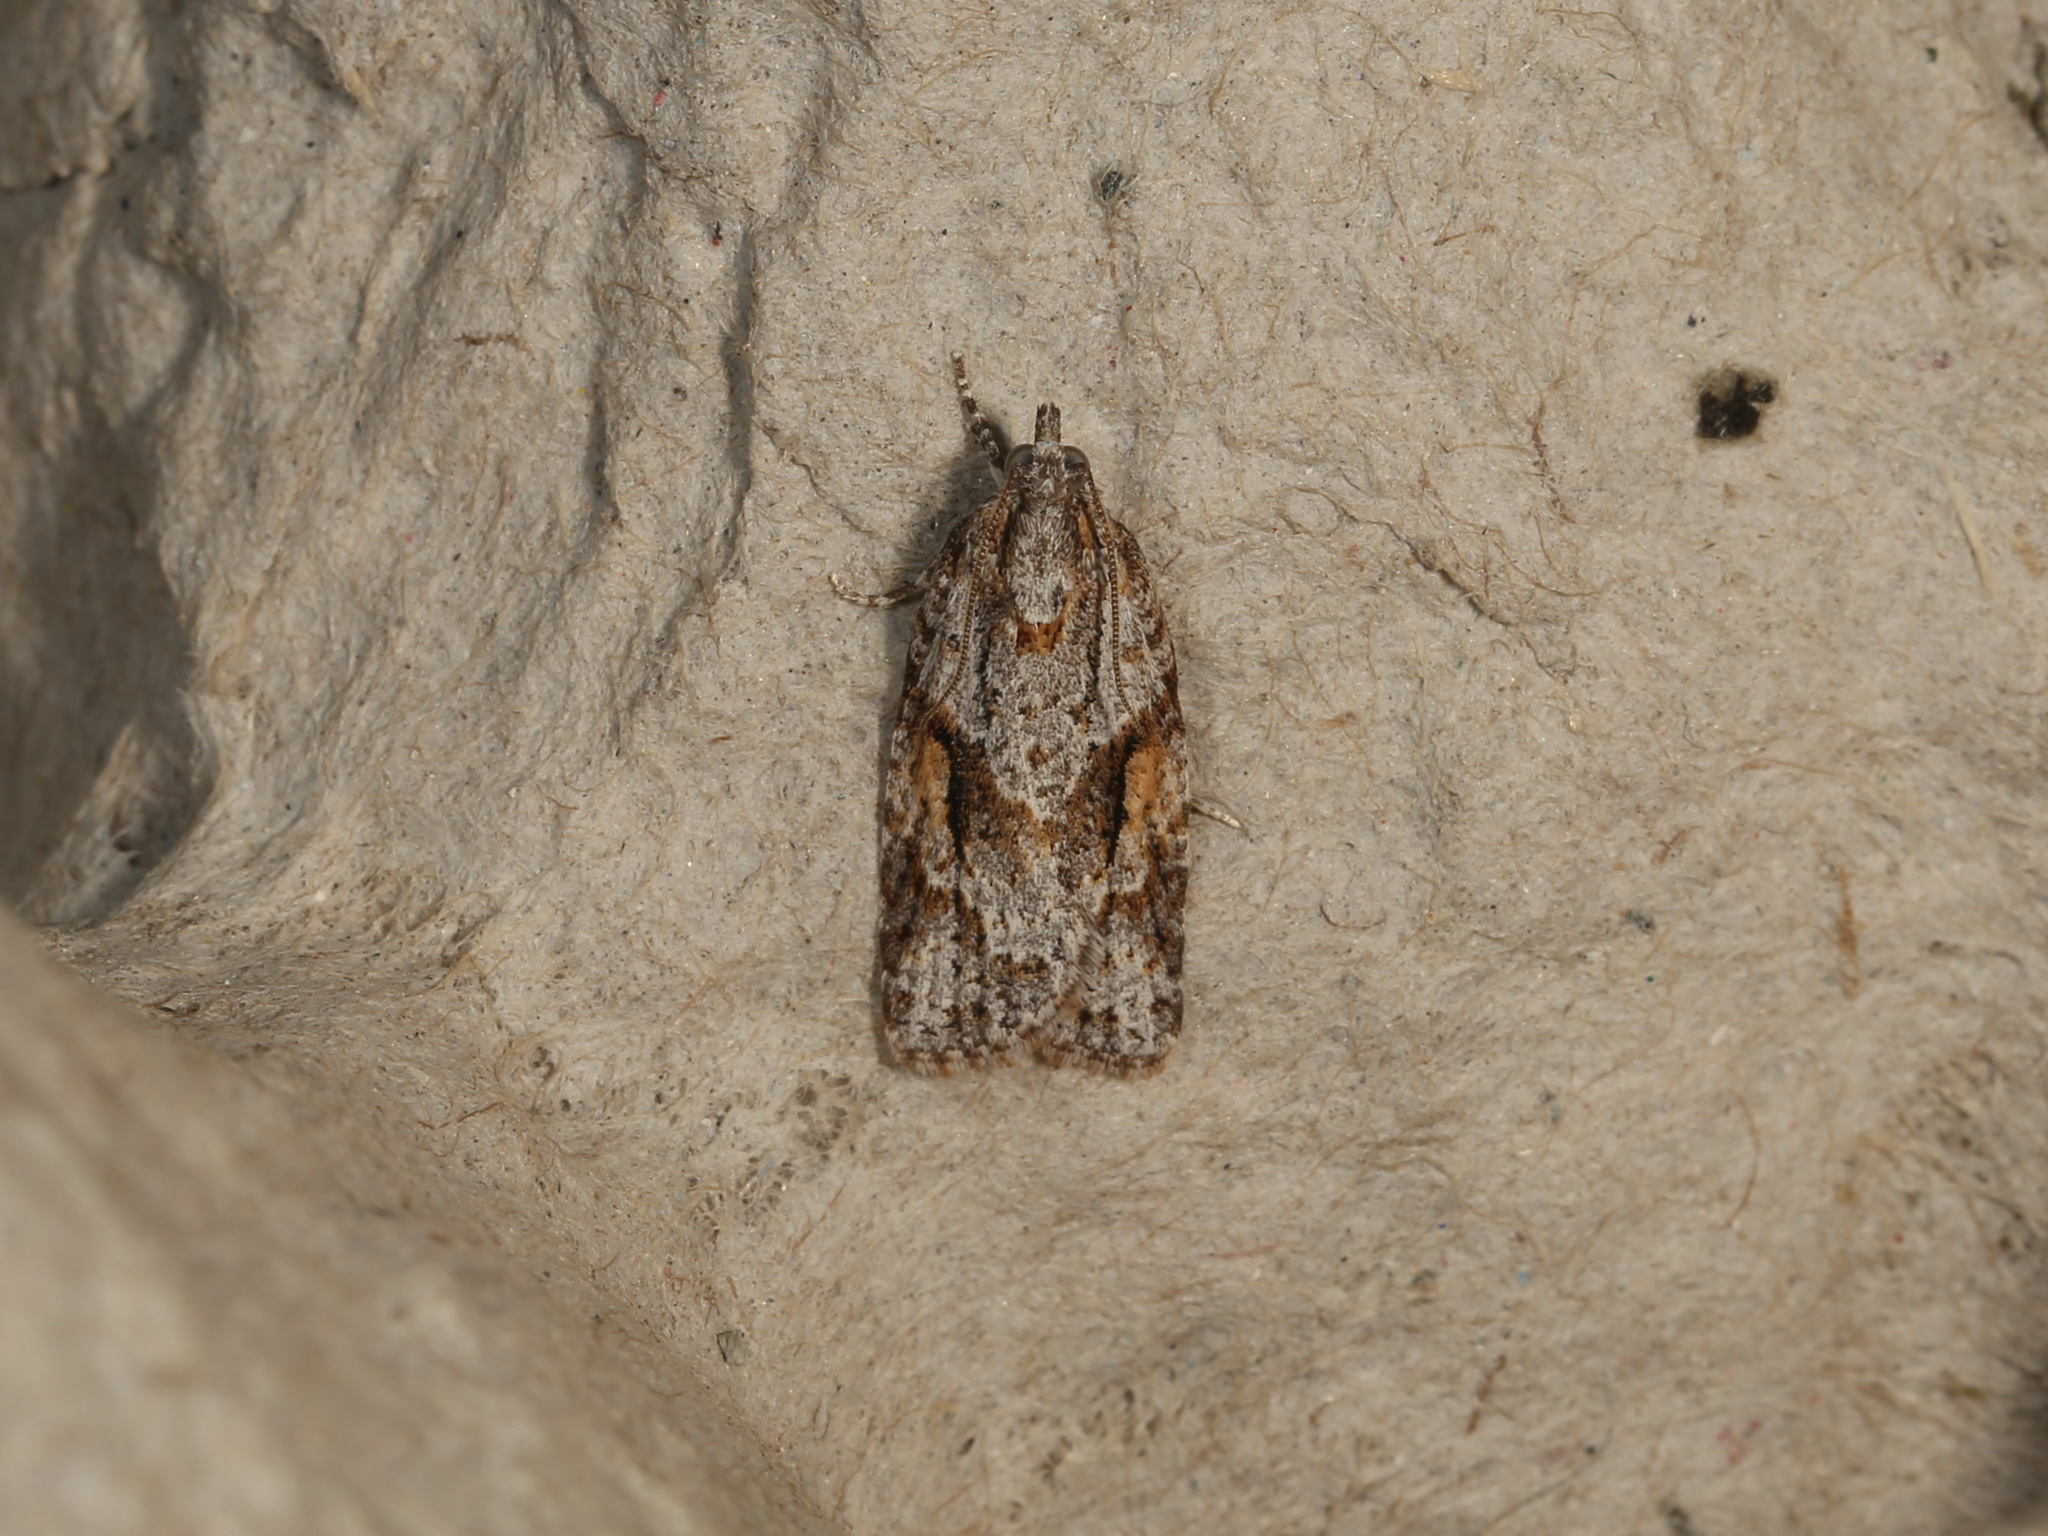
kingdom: Animalia
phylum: Arthropoda
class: Insecta
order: Lepidoptera
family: Tortricidae
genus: Acropolitis
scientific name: Acropolitis rudisana
